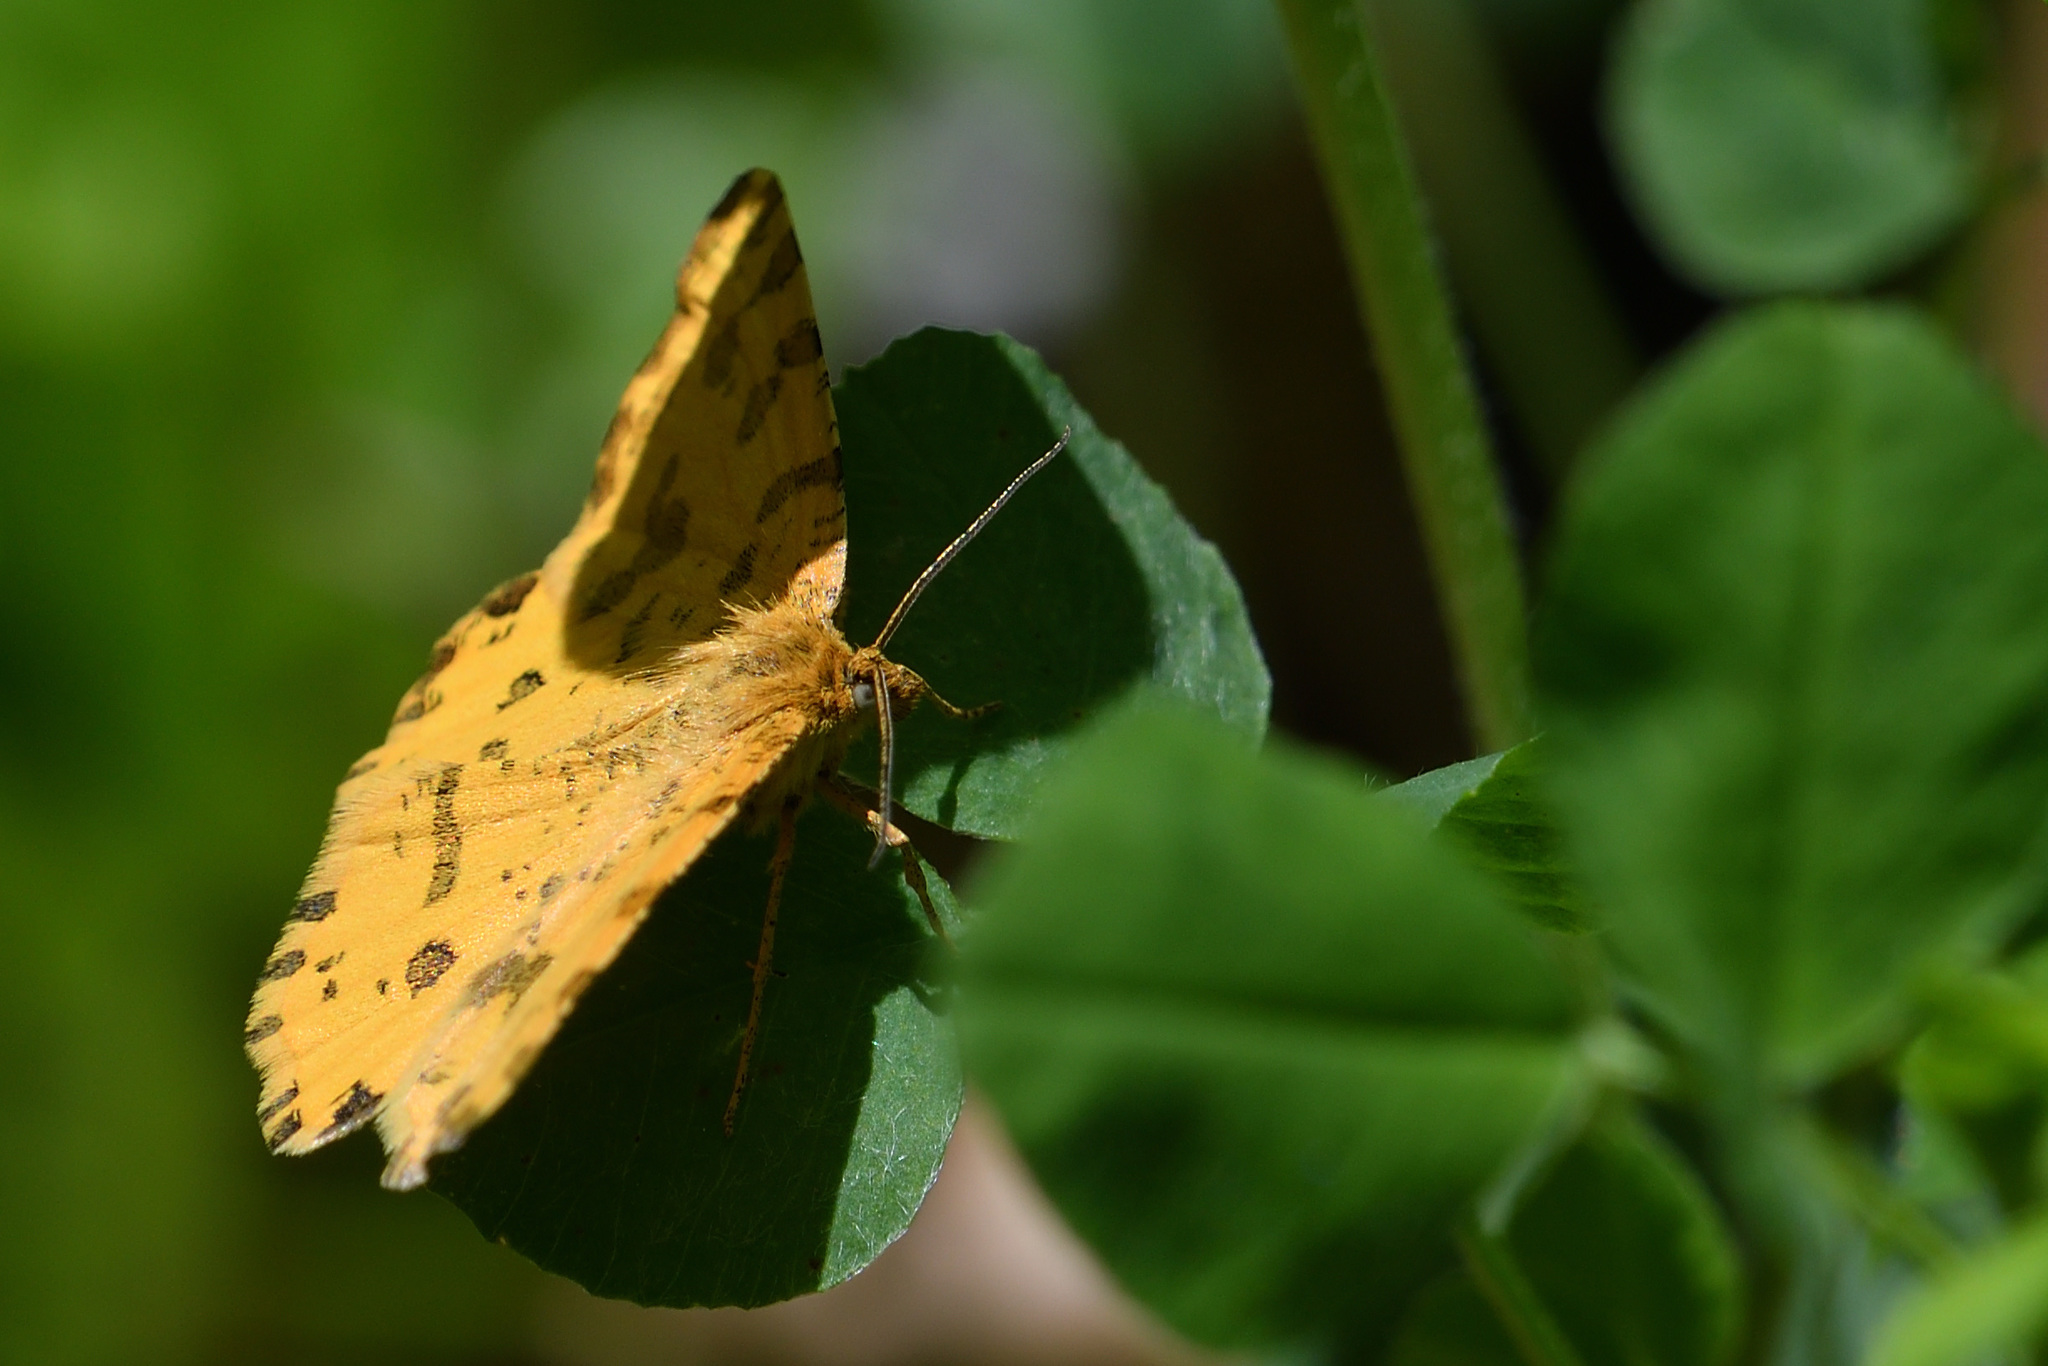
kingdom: Animalia
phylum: Arthropoda
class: Insecta
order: Lepidoptera
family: Geometridae
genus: Pseudopanthera
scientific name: Pseudopanthera macularia
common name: Speckled yellow
